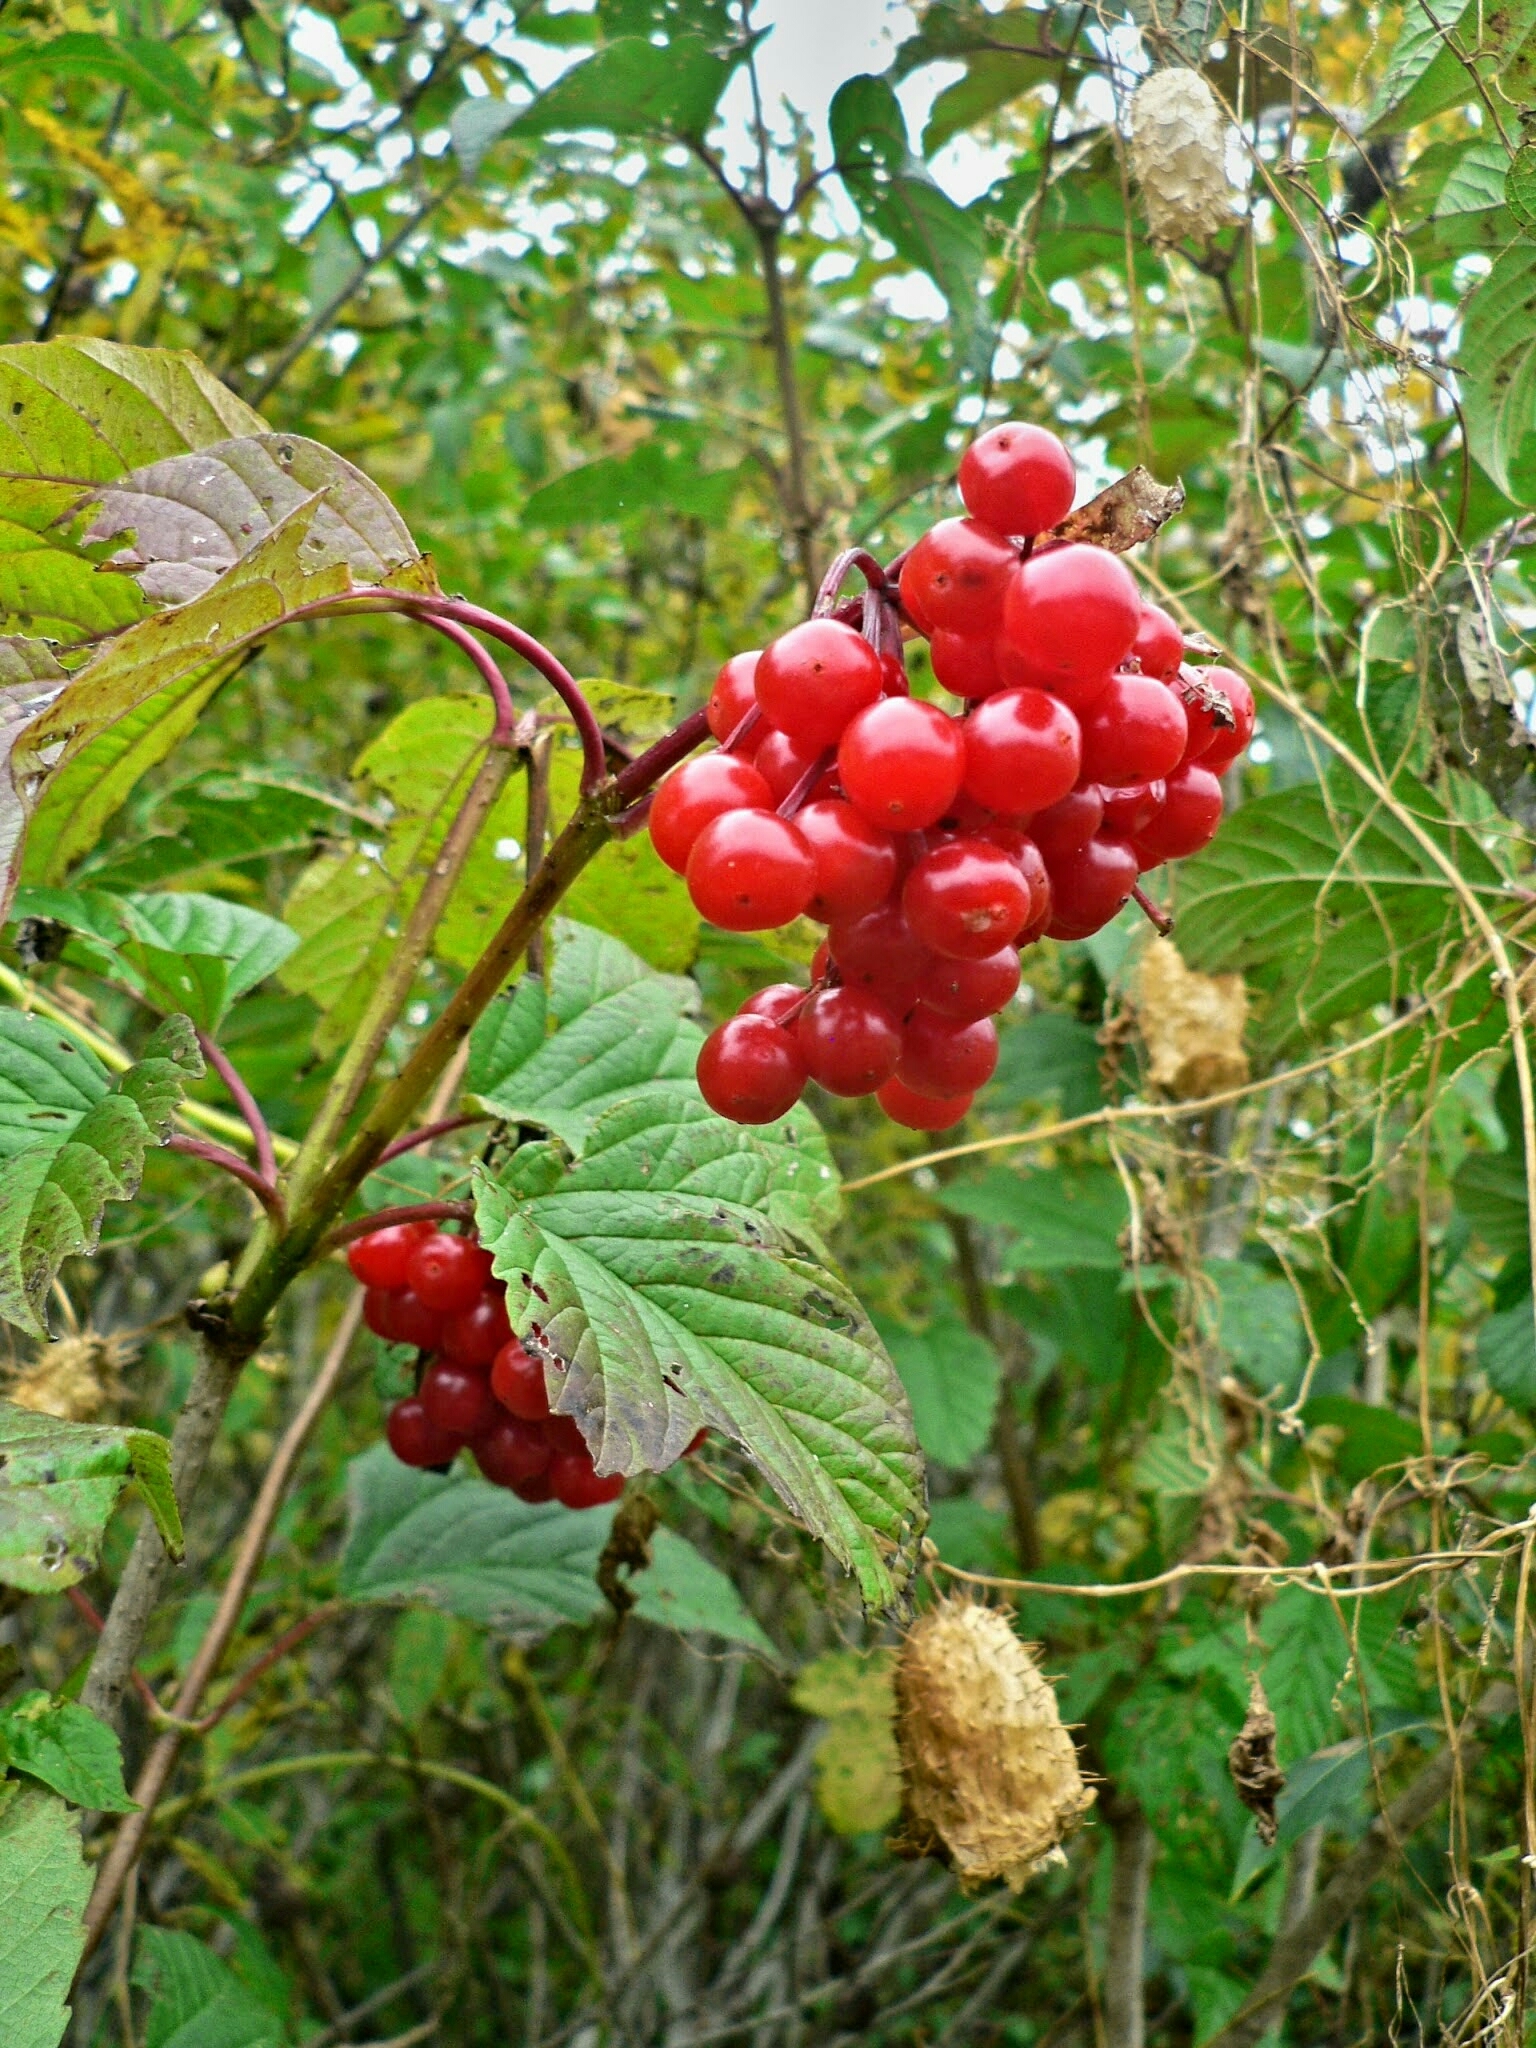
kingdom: Plantae
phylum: Tracheophyta
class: Magnoliopsida
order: Dipsacales
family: Viburnaceae
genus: Viburnum
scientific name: Viburnum opulus
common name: Guelder-rose
